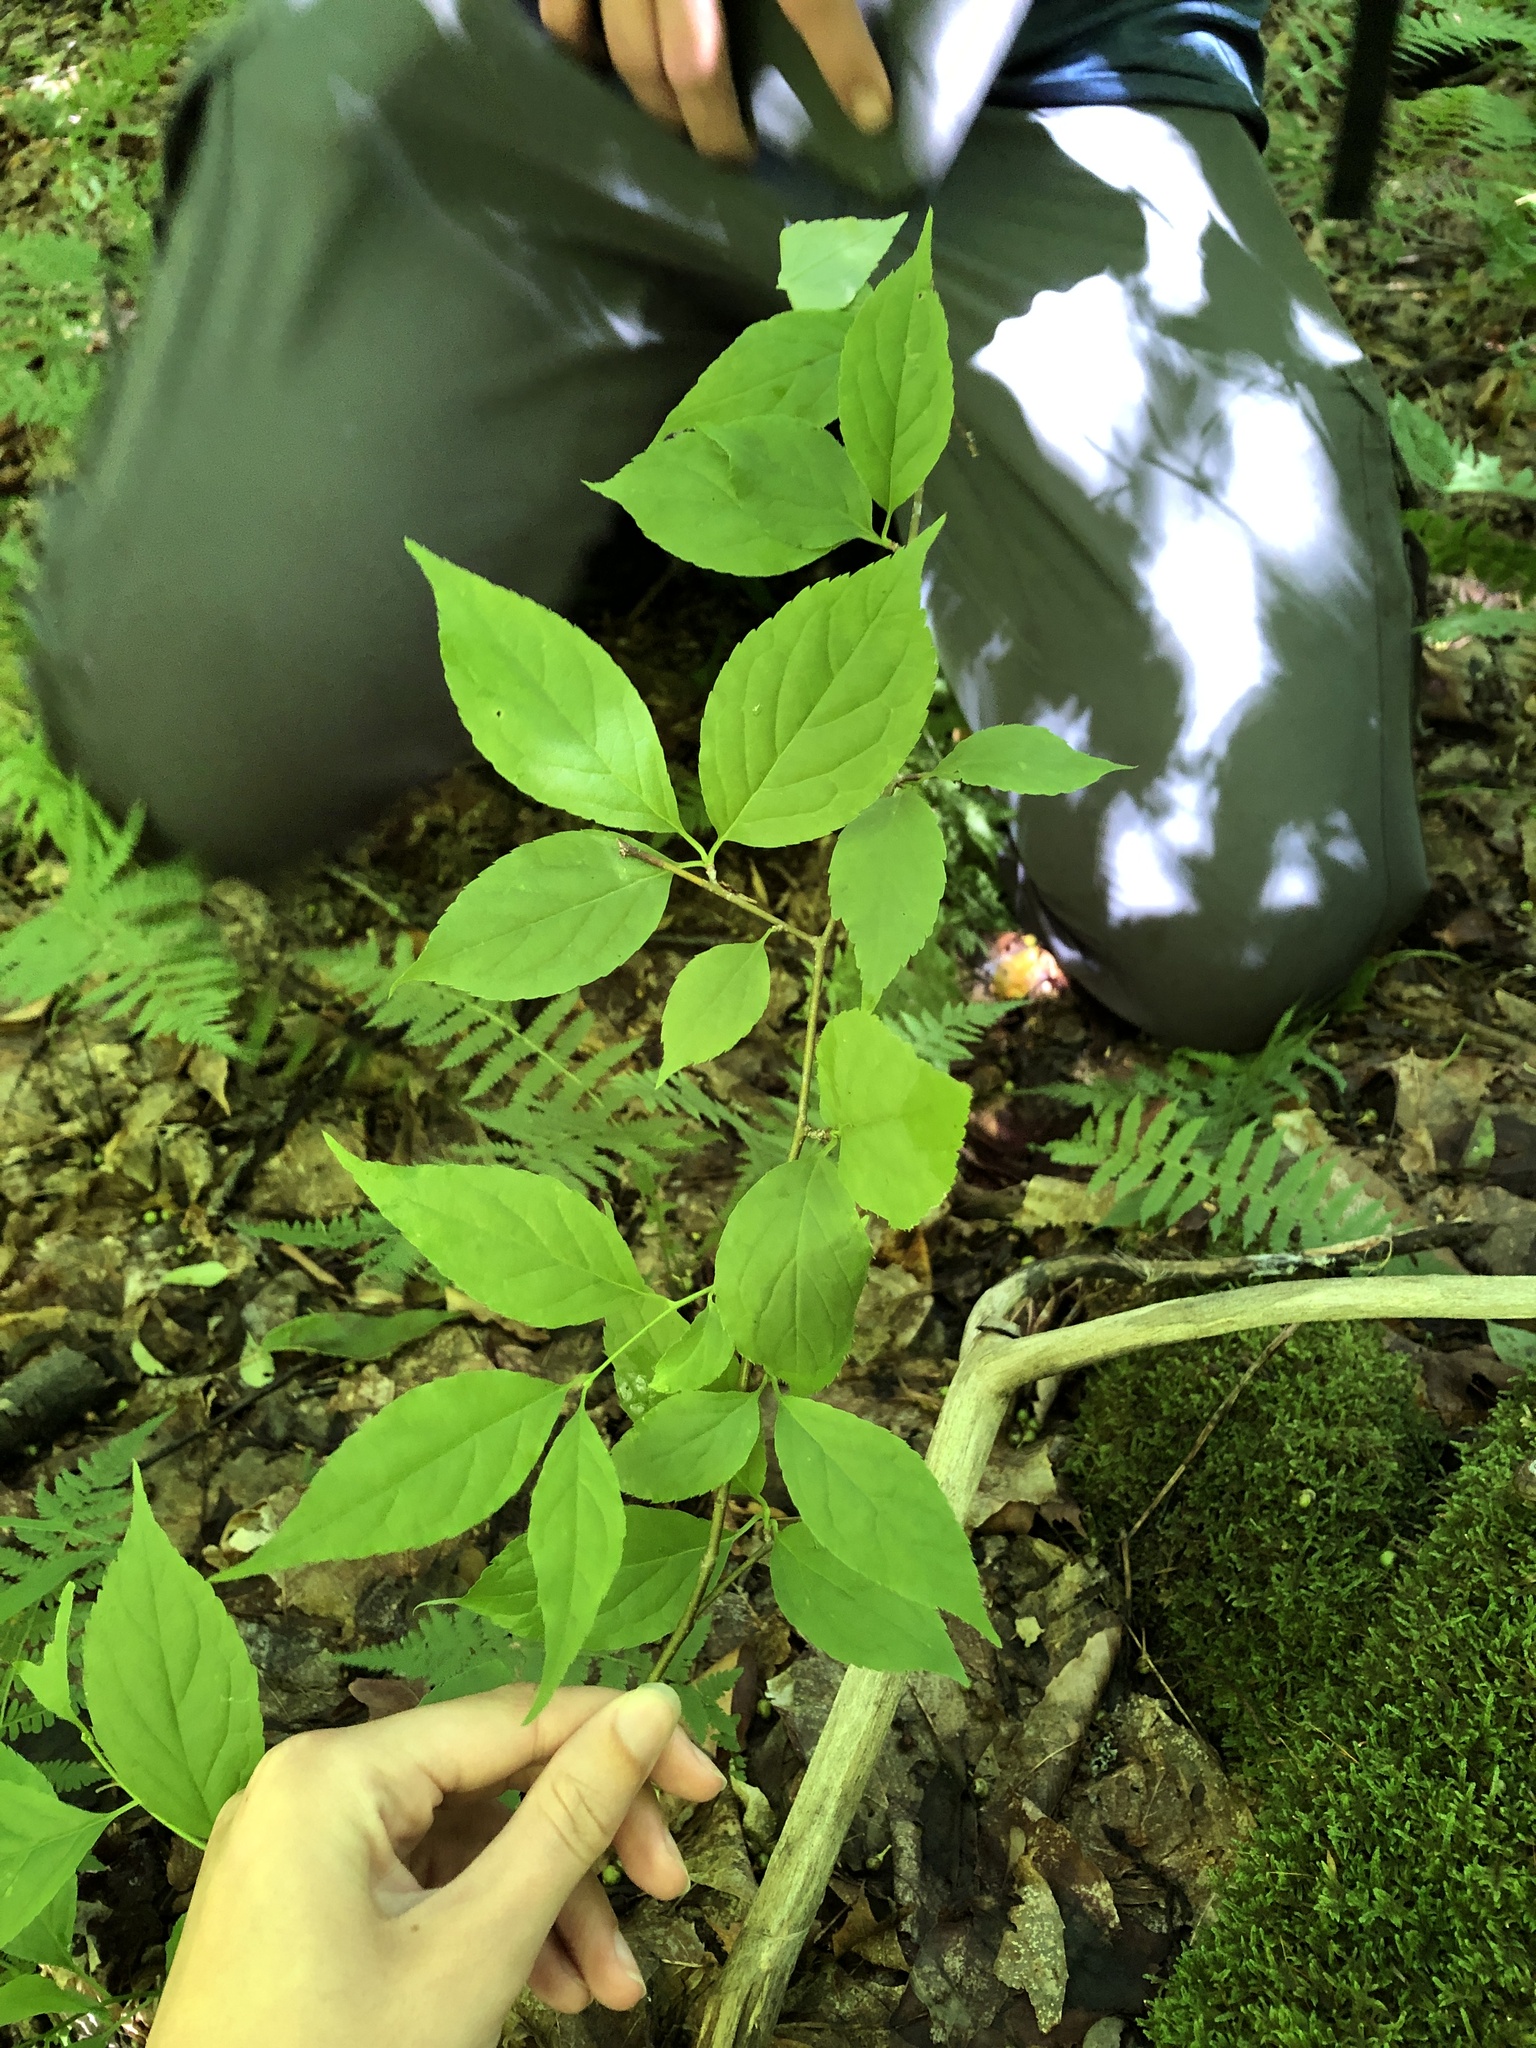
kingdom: Plantae
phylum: Tracheophyta
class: Magnoliopsida
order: Aquifoliales
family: Aquifoliaceae
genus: Ilex
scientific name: Ilex montana
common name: Mountain winterberry
